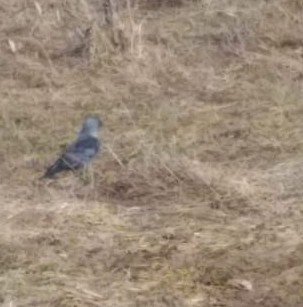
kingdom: Animalia
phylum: Chordata
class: Aves
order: Passeriformes
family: Corvidae
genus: Coloeus
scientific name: Coloeus monedula
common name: Western jackdaw
